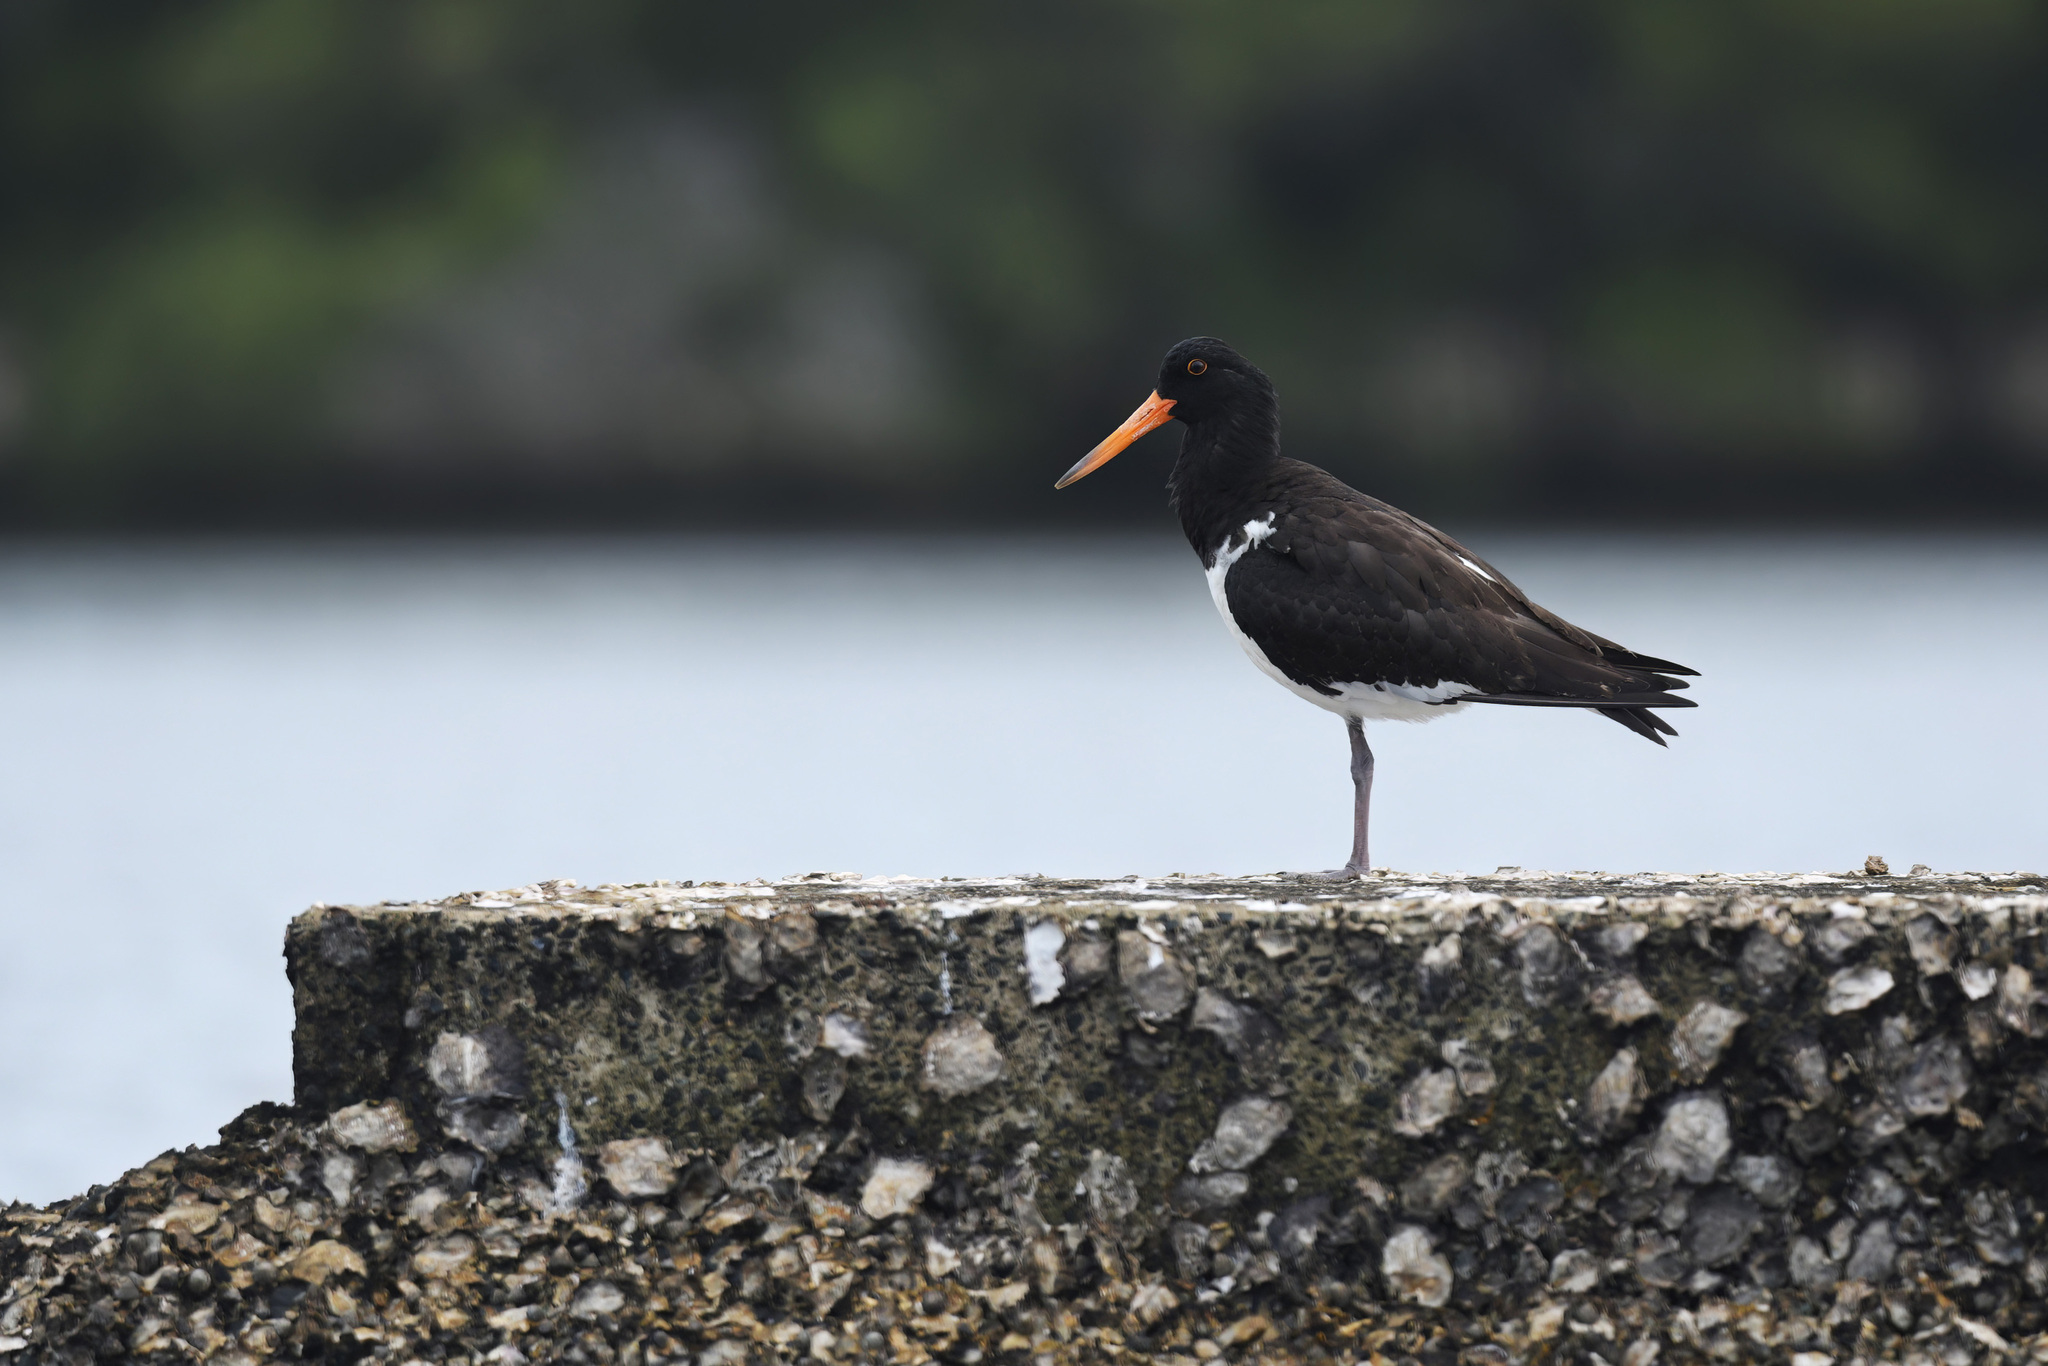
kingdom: Animalia
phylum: Chordata
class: Aves
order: Charadriiformes
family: Haematopodidae
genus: Haematopus
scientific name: Haematopus longirostris
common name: Pied oystercatcher
